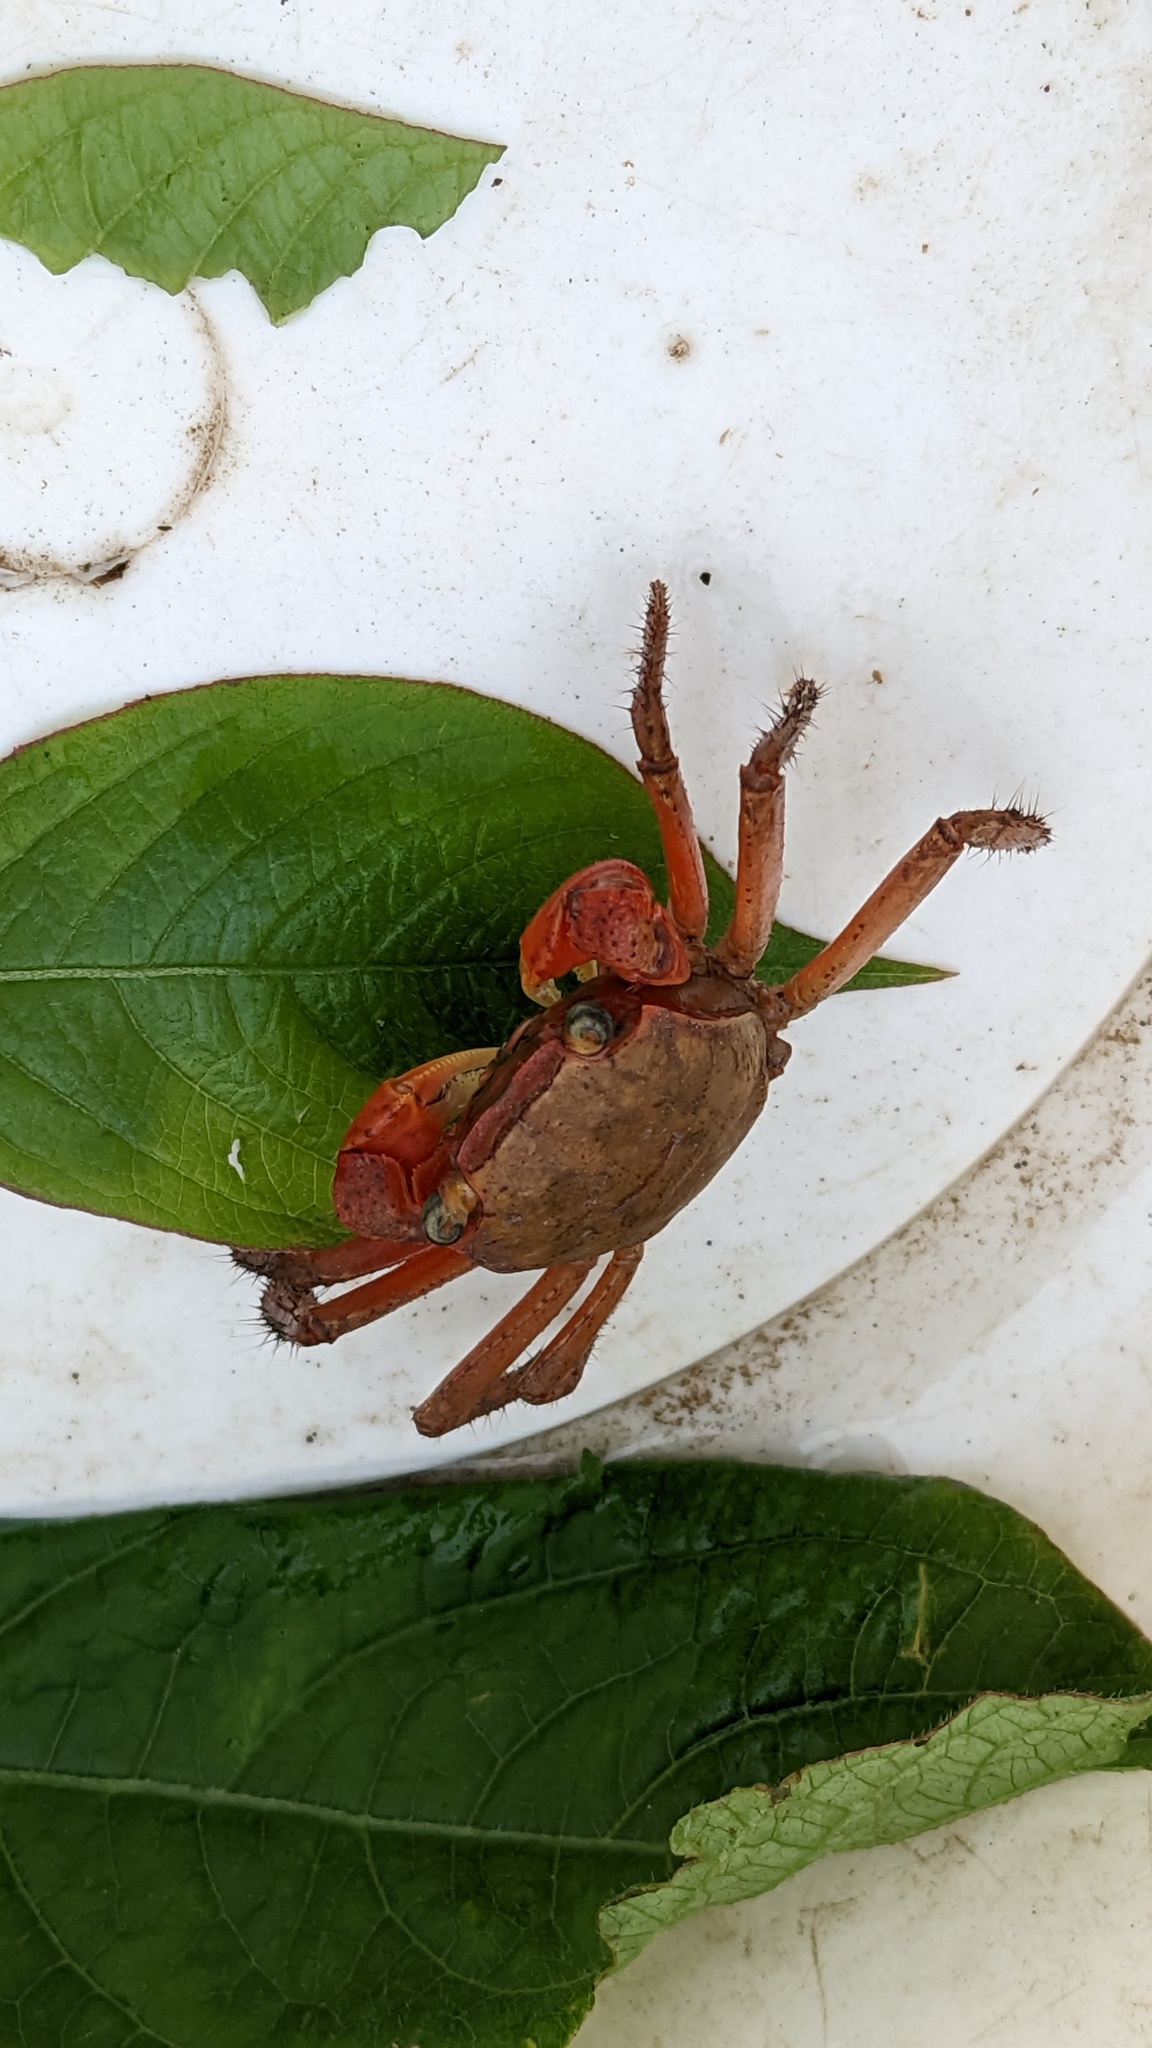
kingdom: Animalia
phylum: Arthropoda
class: Malacostraca
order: Decapoda
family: Sesarmidae
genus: Chiromantes
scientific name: Chiromantes haematocheir
